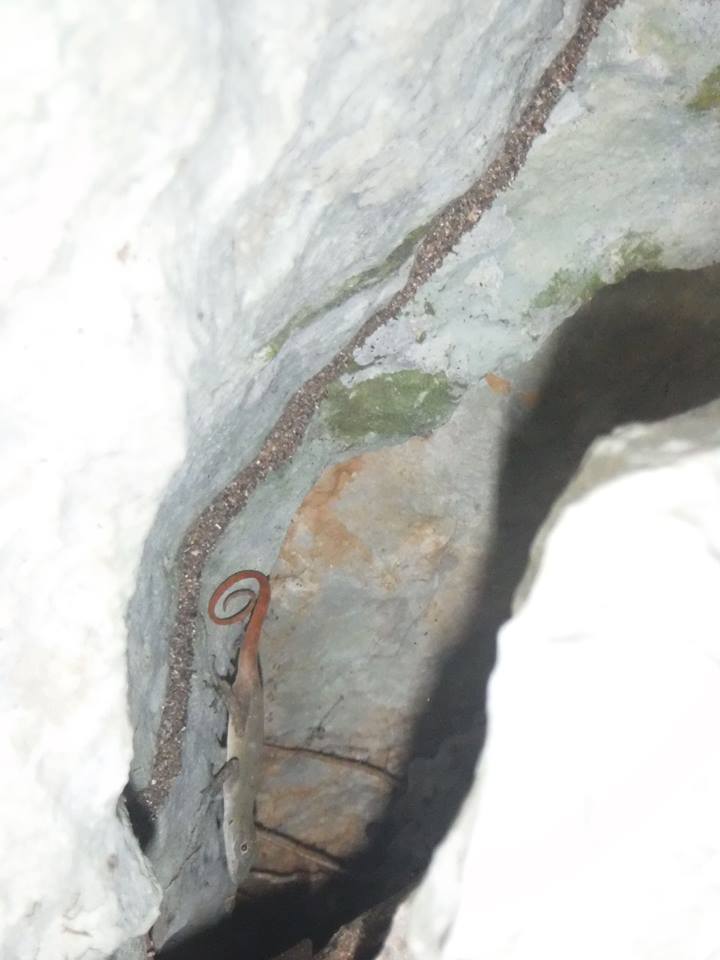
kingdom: Animalia
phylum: Chordata
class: Squamata
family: Dactyloidae
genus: Anolis
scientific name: Anolis mestrei
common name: Pinardel rio anole
